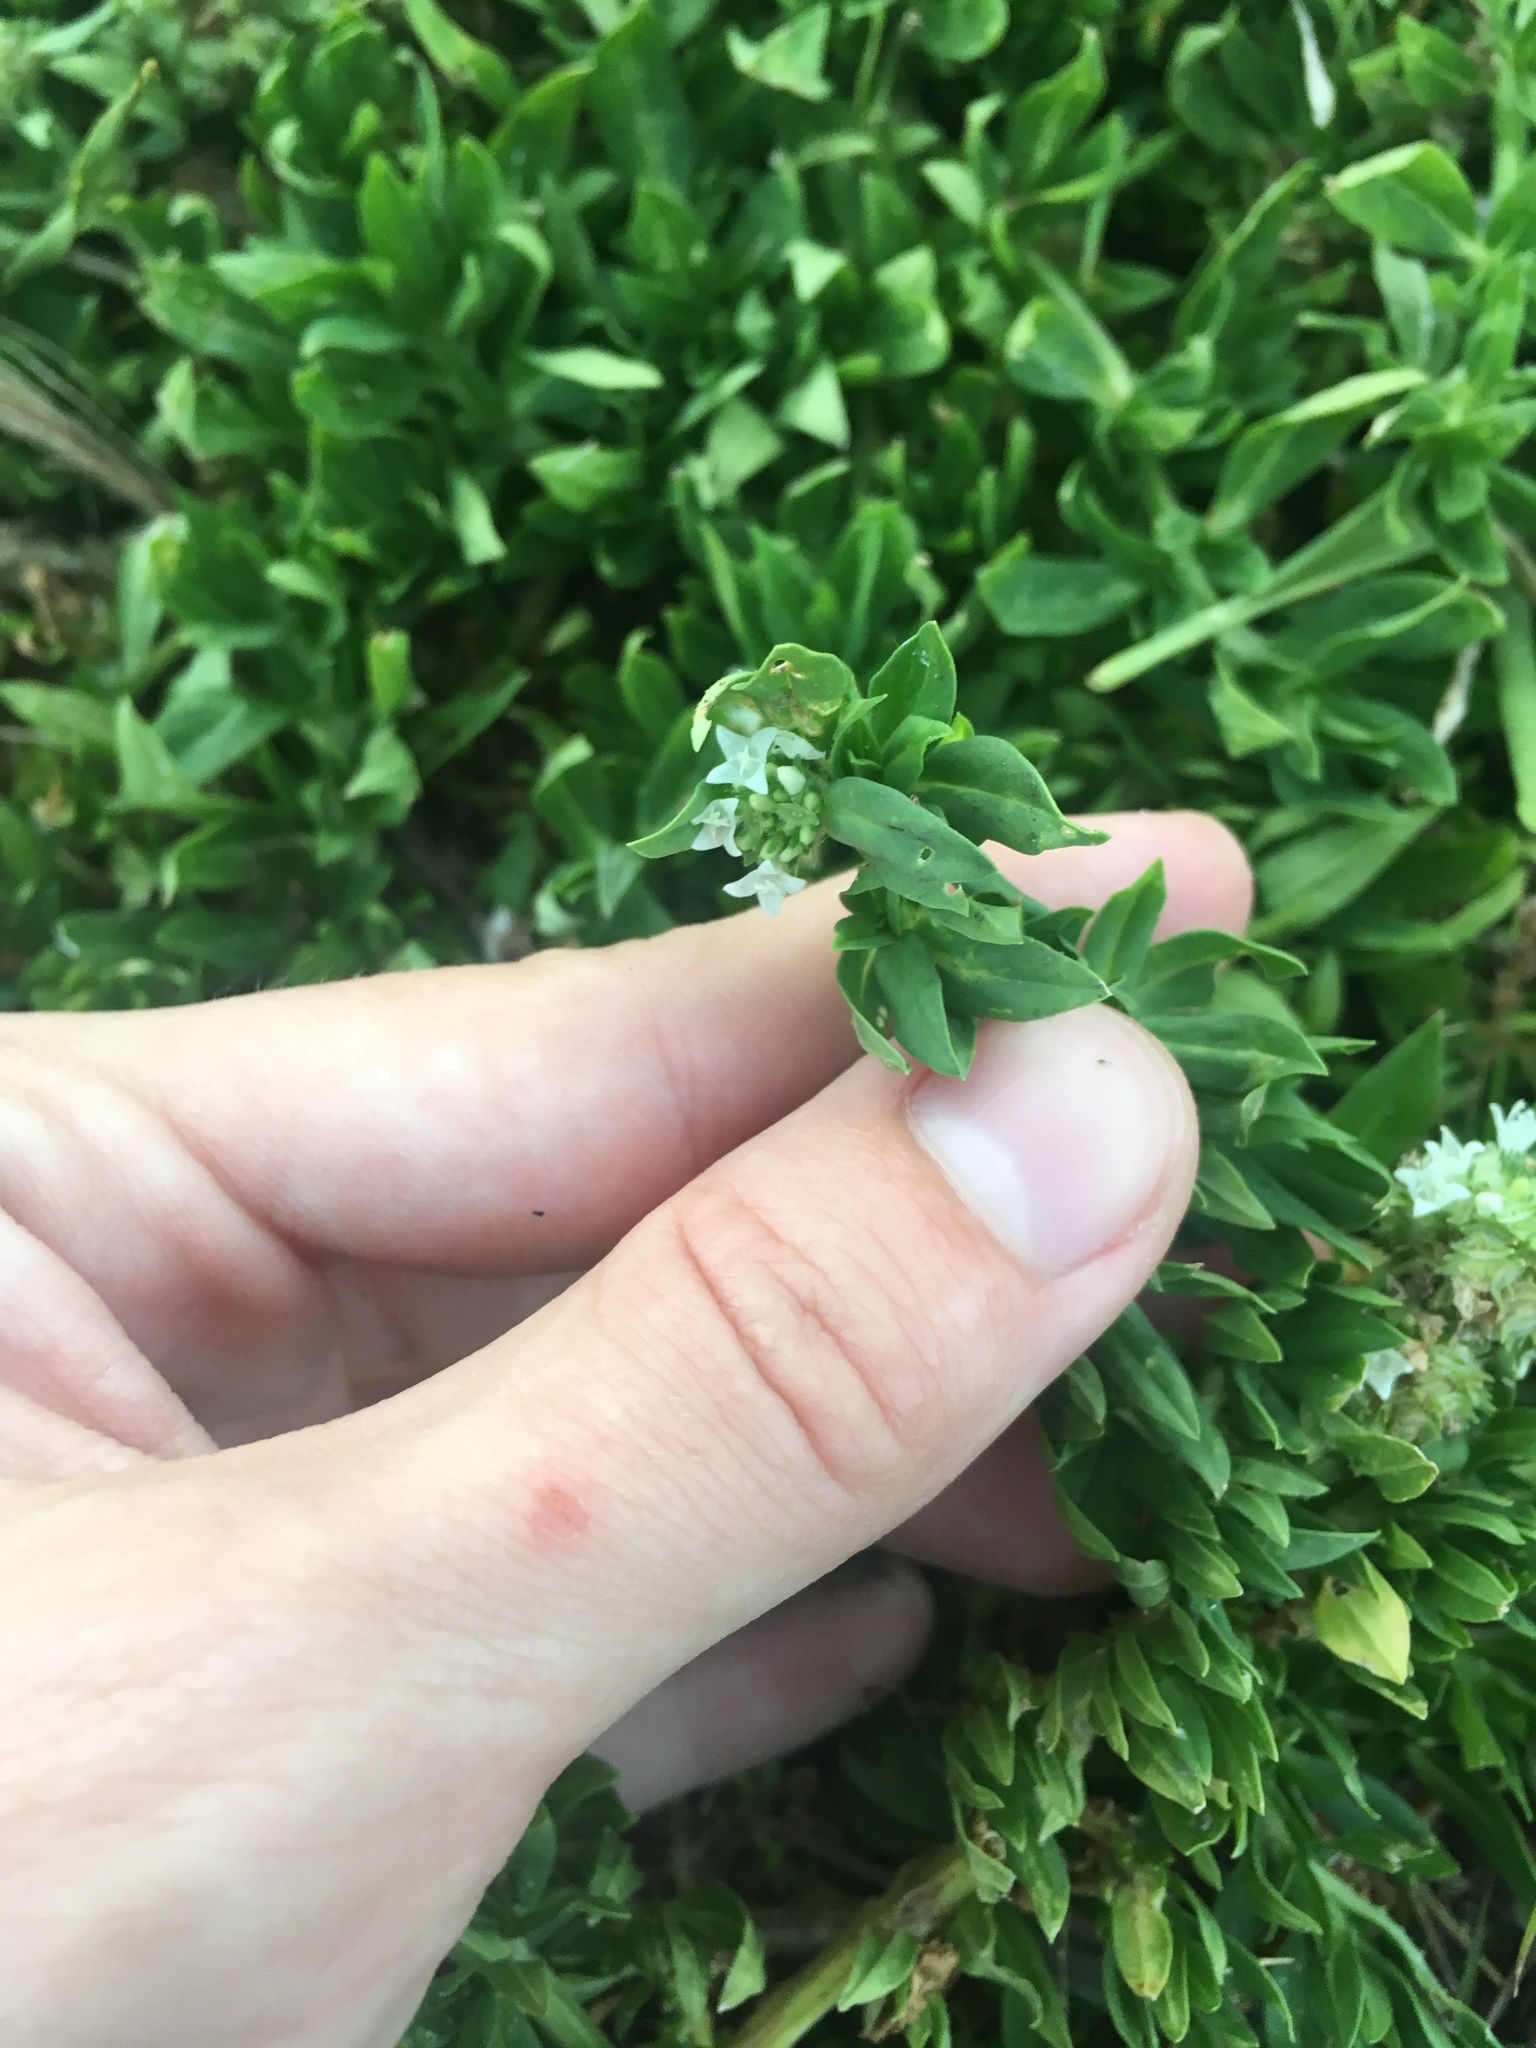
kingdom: Plantae
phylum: Tracheophyta
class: Magnoliopsida
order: Gentianales
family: Rubiaceae
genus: Spermacoce
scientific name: Spermacoce verticillata
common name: Shrubby false buttonweed
